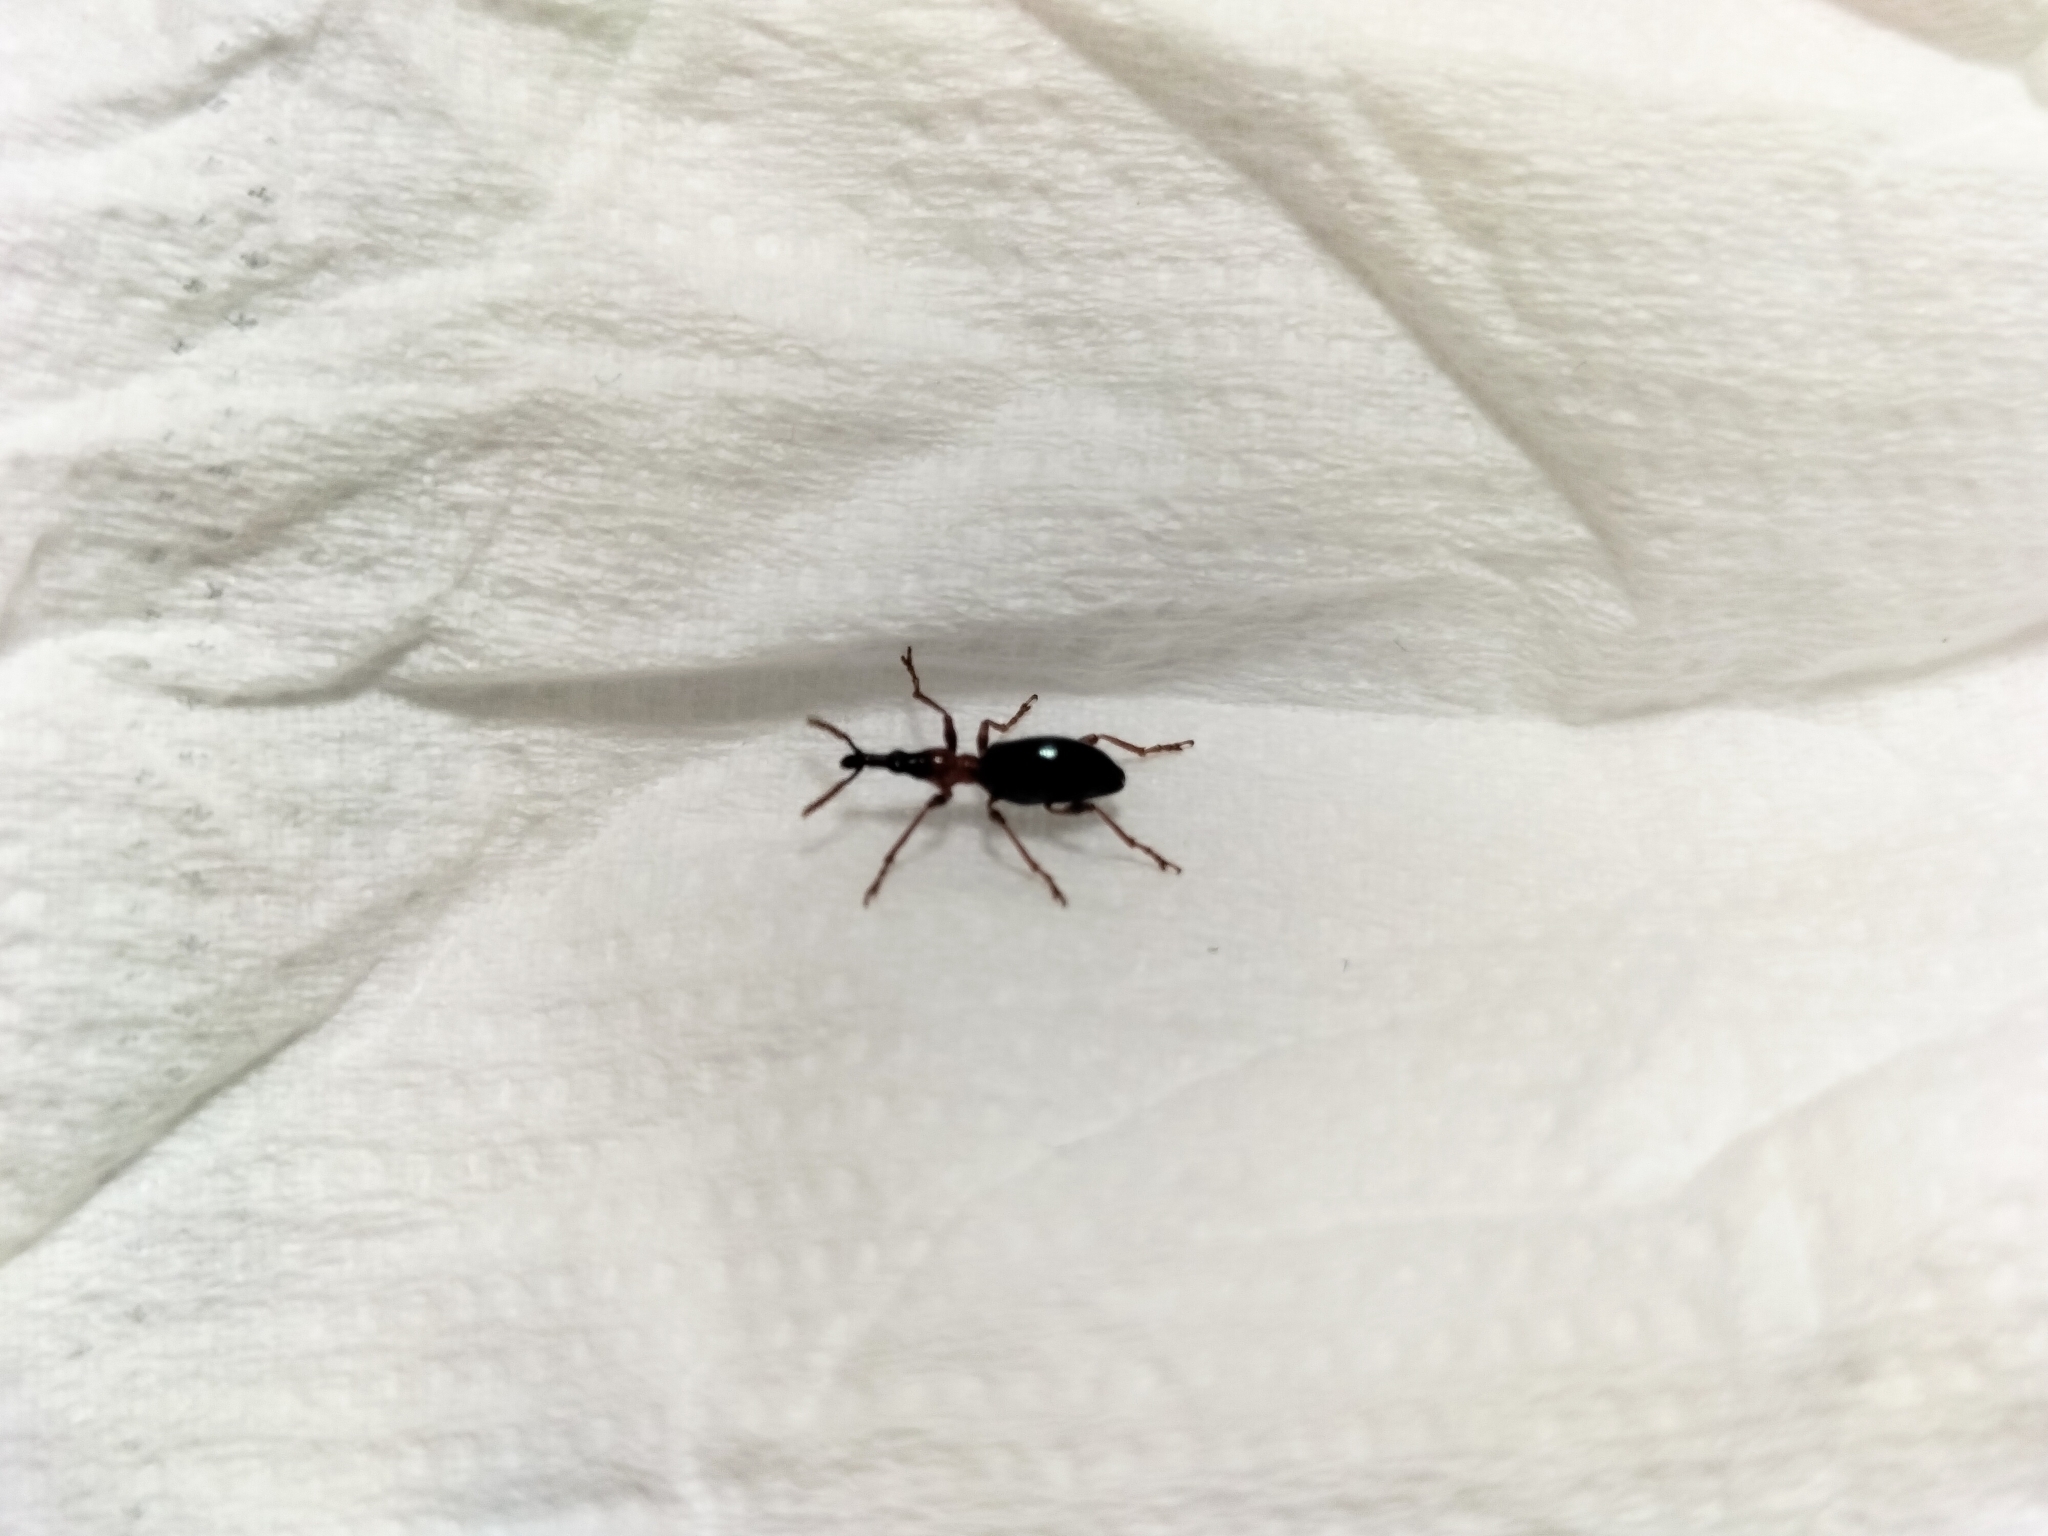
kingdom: Animalia
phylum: Arthropoda
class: Insecta
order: Coleoptera
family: Brentidae
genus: Cylas
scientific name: Cylas formicarius
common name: Sweetpotato weevil
